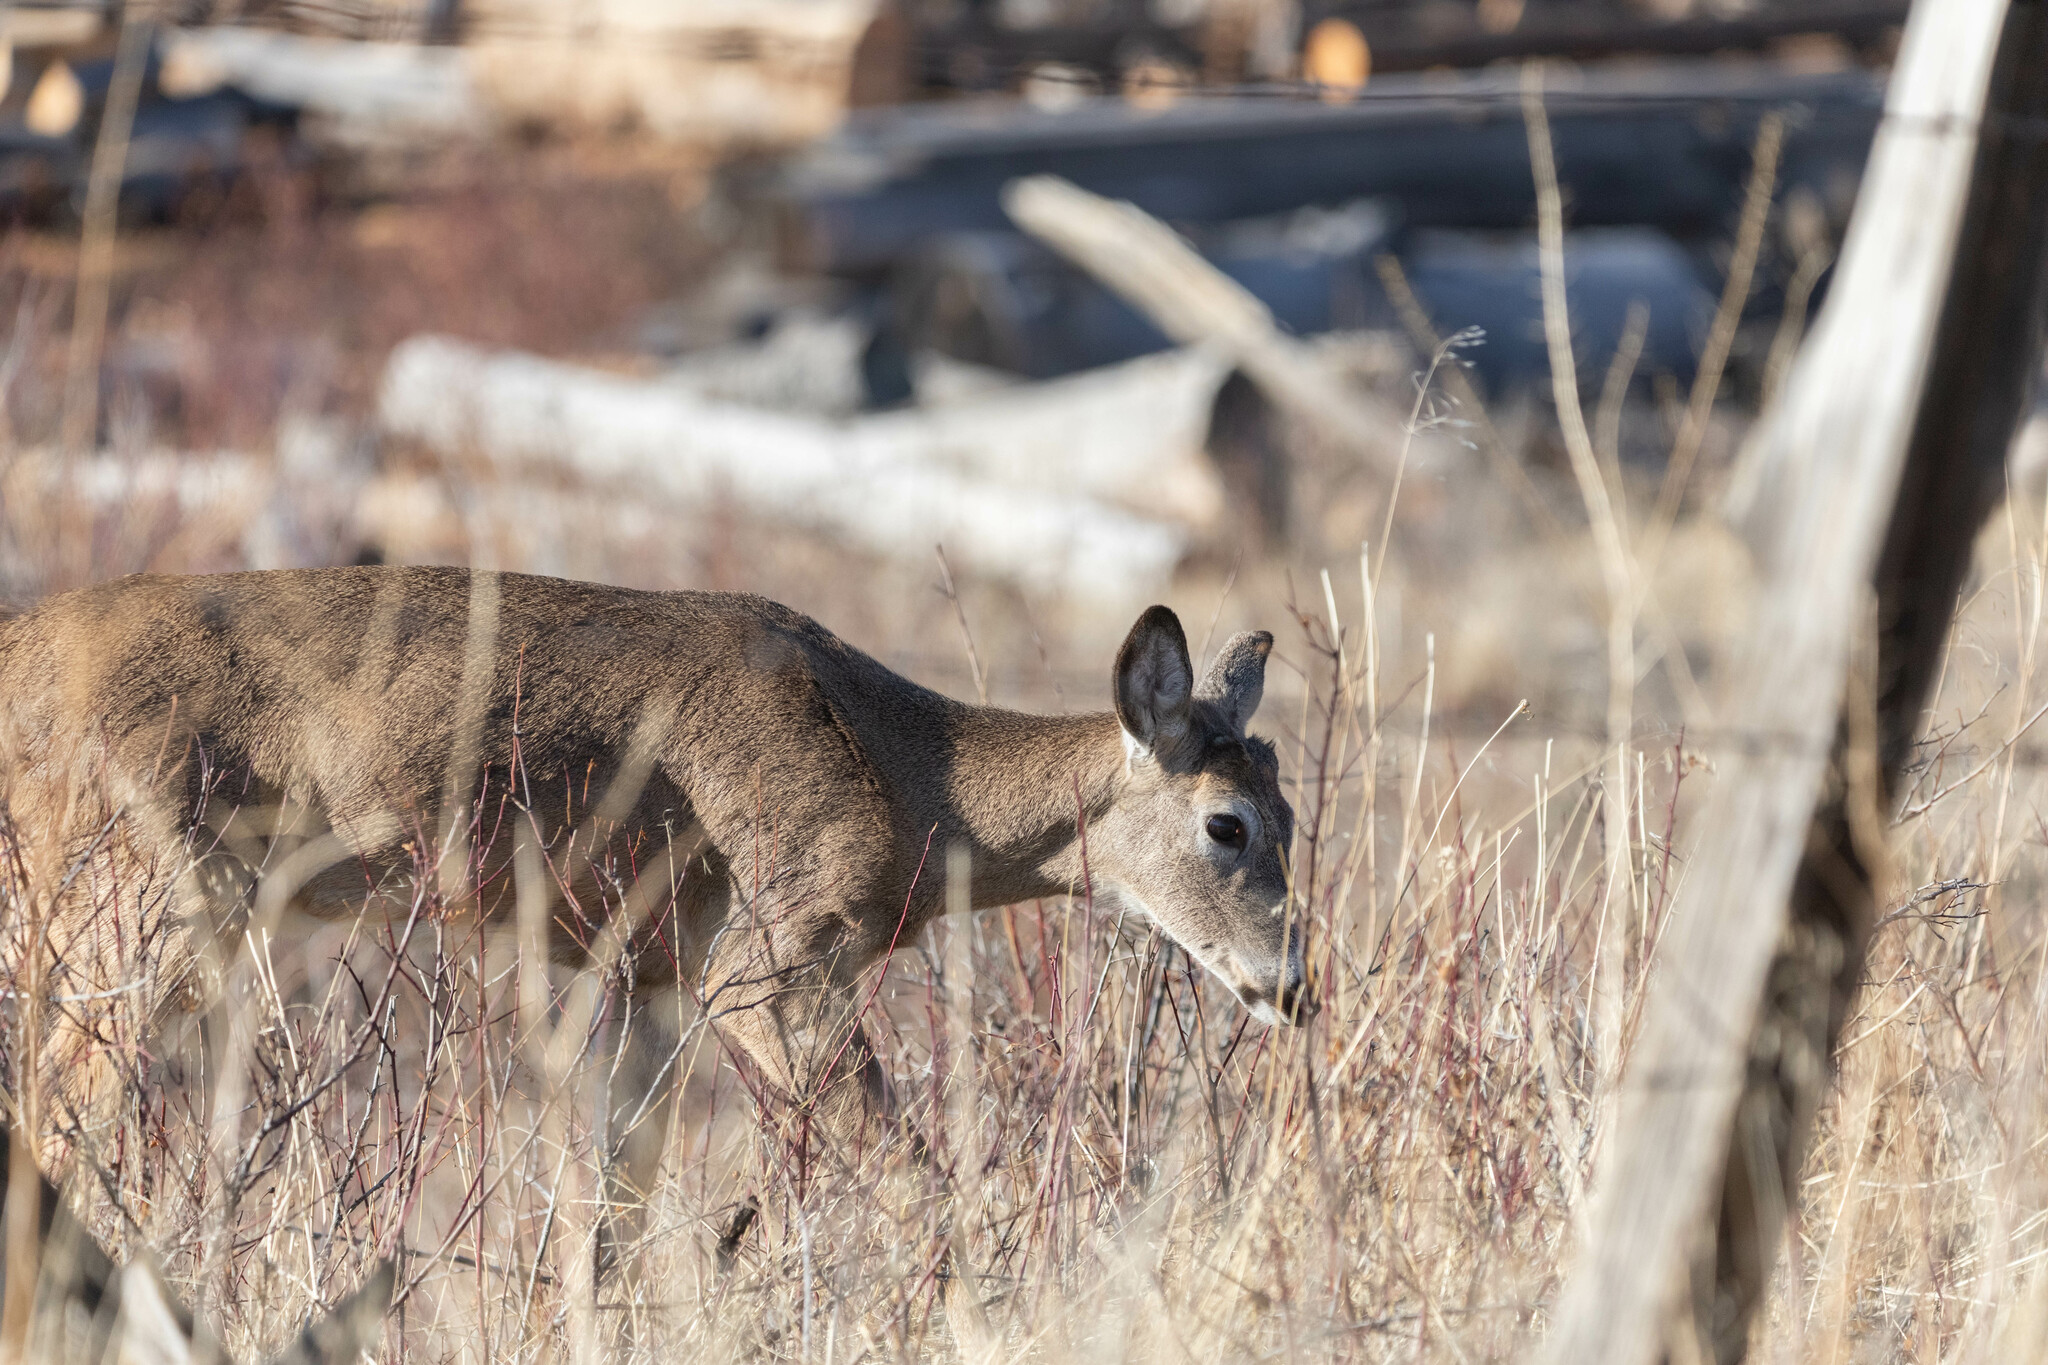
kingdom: Animalia
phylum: Chordata
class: Mammalia
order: Artiodactyla
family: Cervidae
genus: Odocoileus
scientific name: Odocoileus virginianus
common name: White-tailed deer
